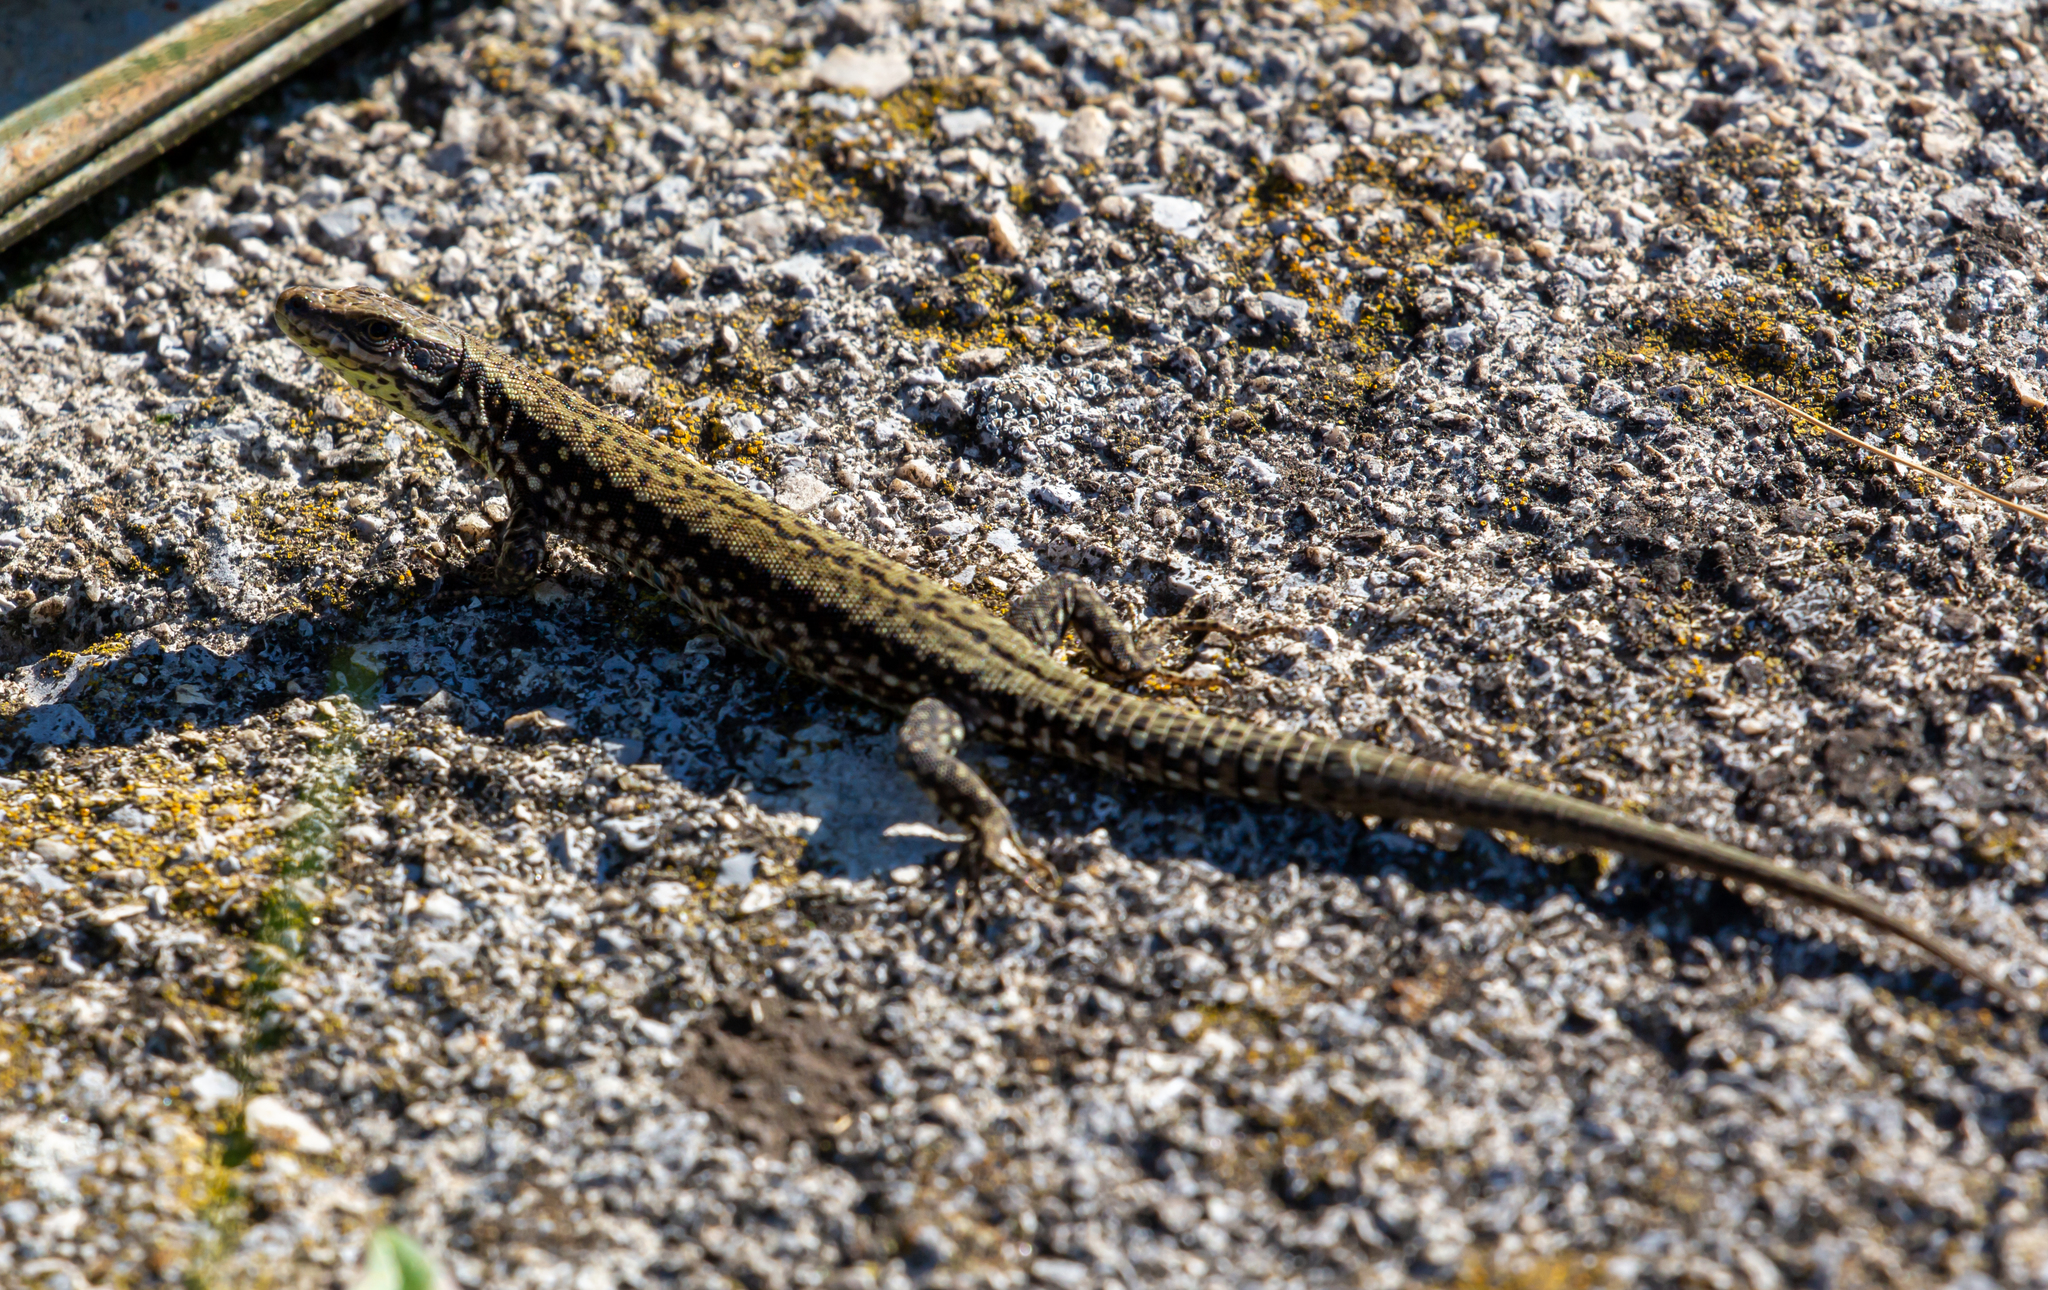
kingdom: Animalia
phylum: Chordata
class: Squamata
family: Lacertidae
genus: Podarcis
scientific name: Podarcis muralis
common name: Common wall lizard
